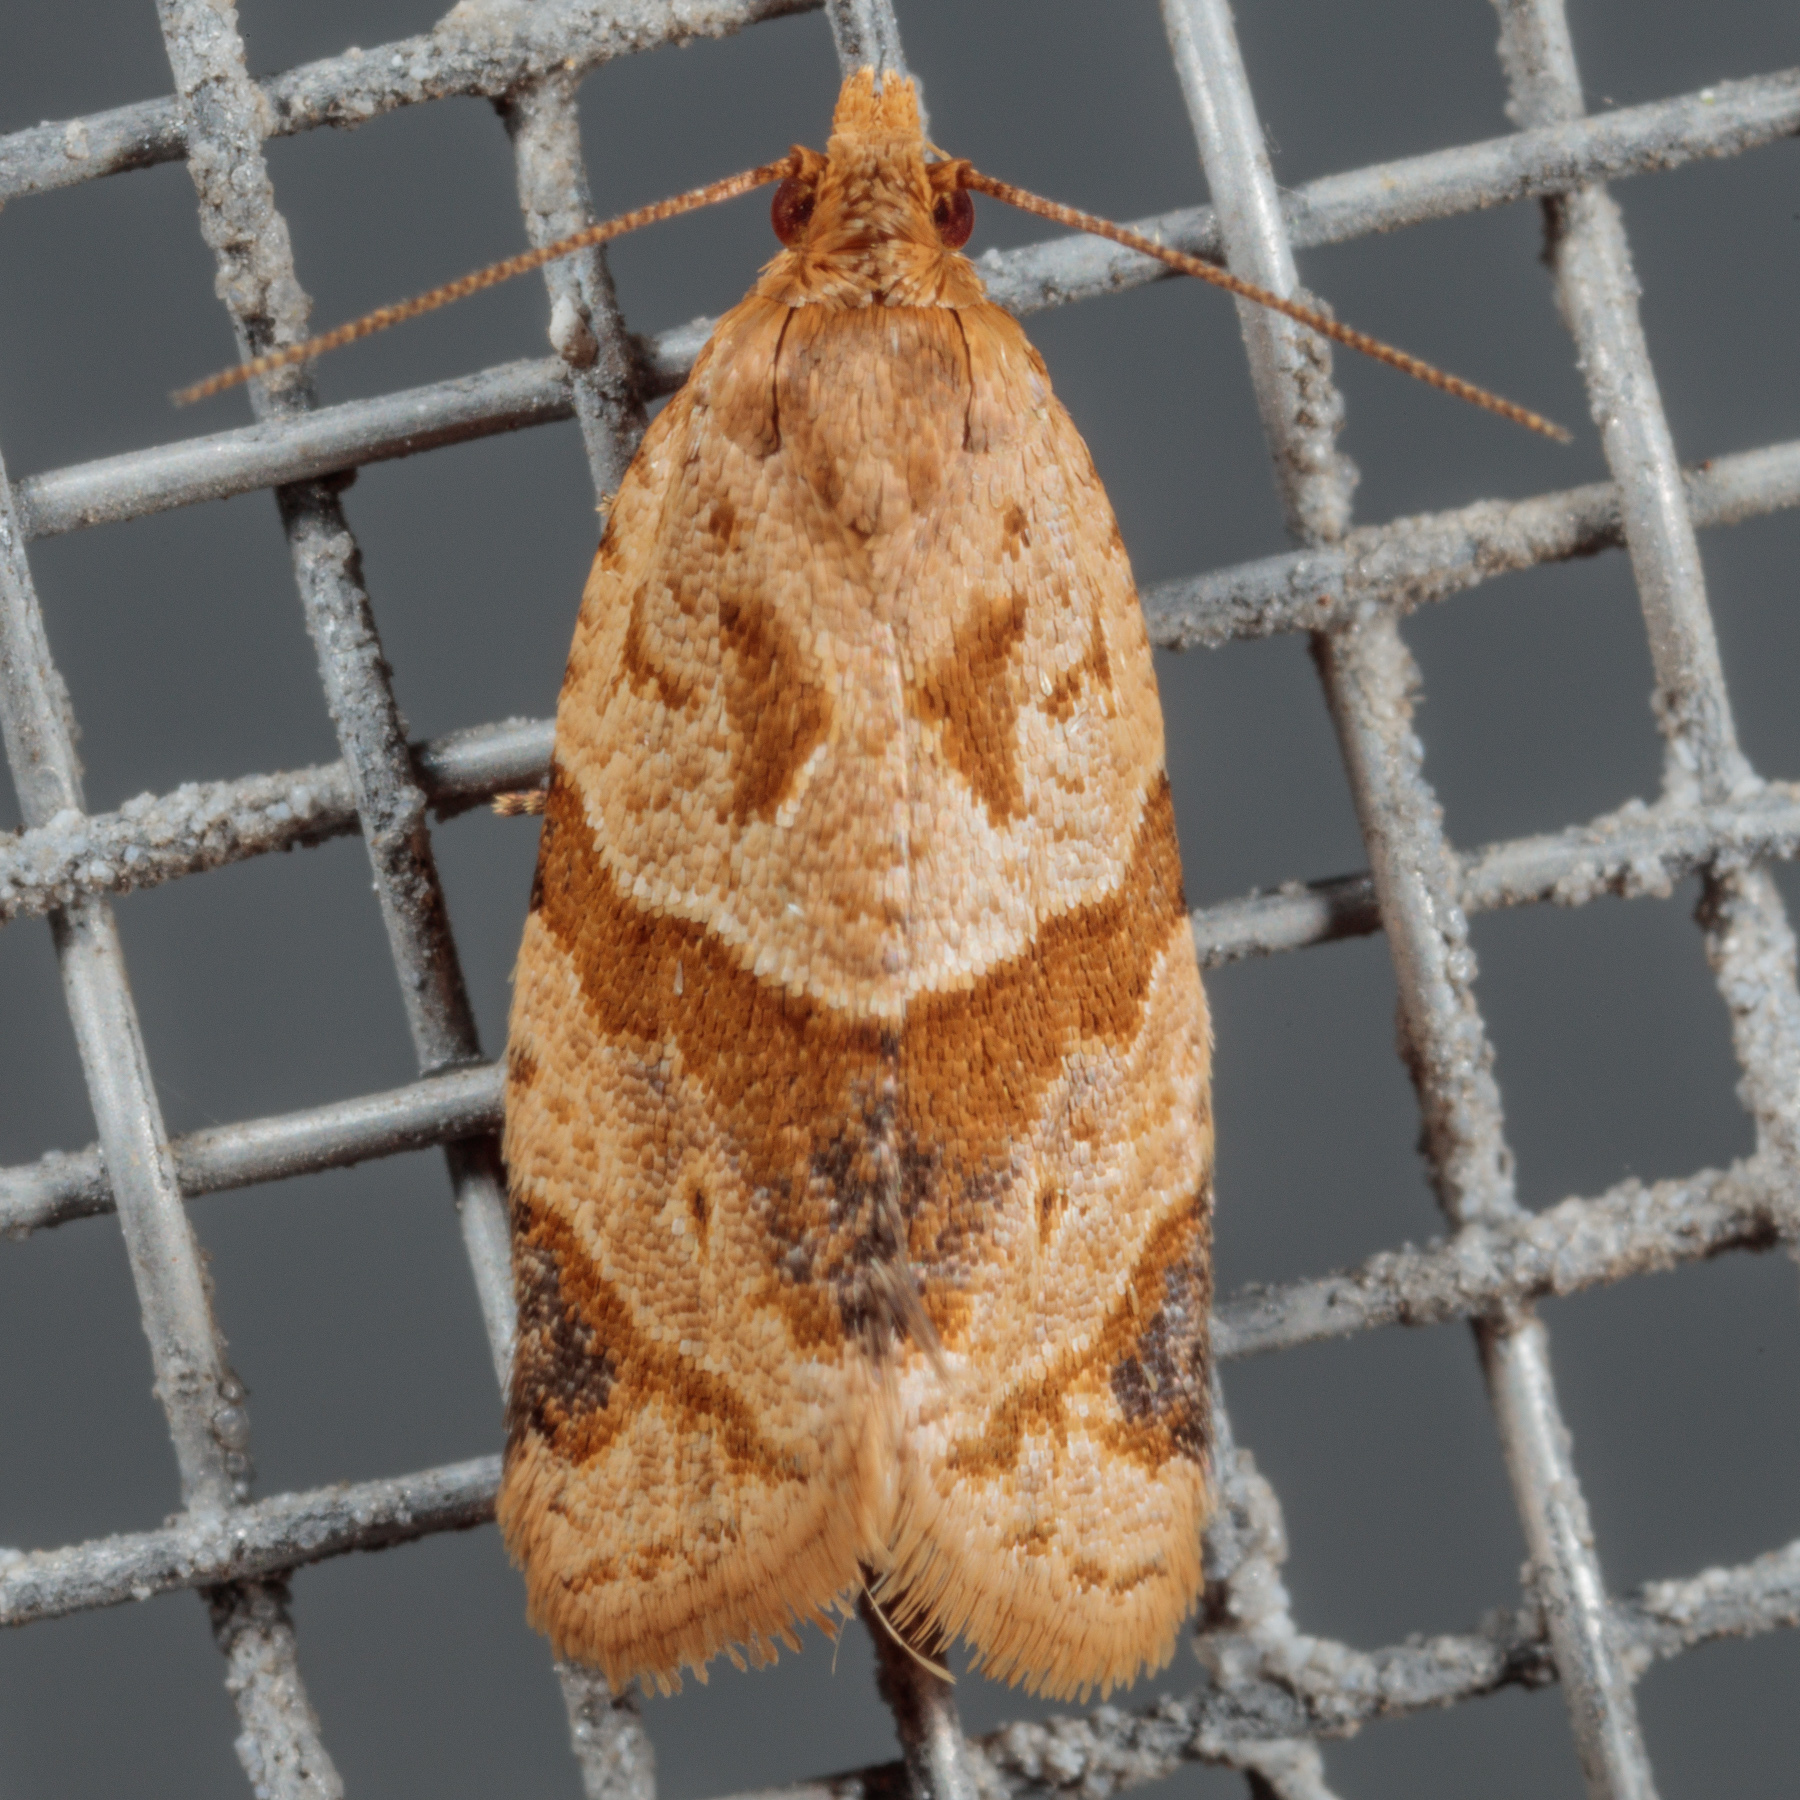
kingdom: Animalia
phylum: Arthropoda
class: Insecta
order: Lepidoptera
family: Tortricidae
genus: Clepsis
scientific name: Clepsis peritana
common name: Garden tortrix
